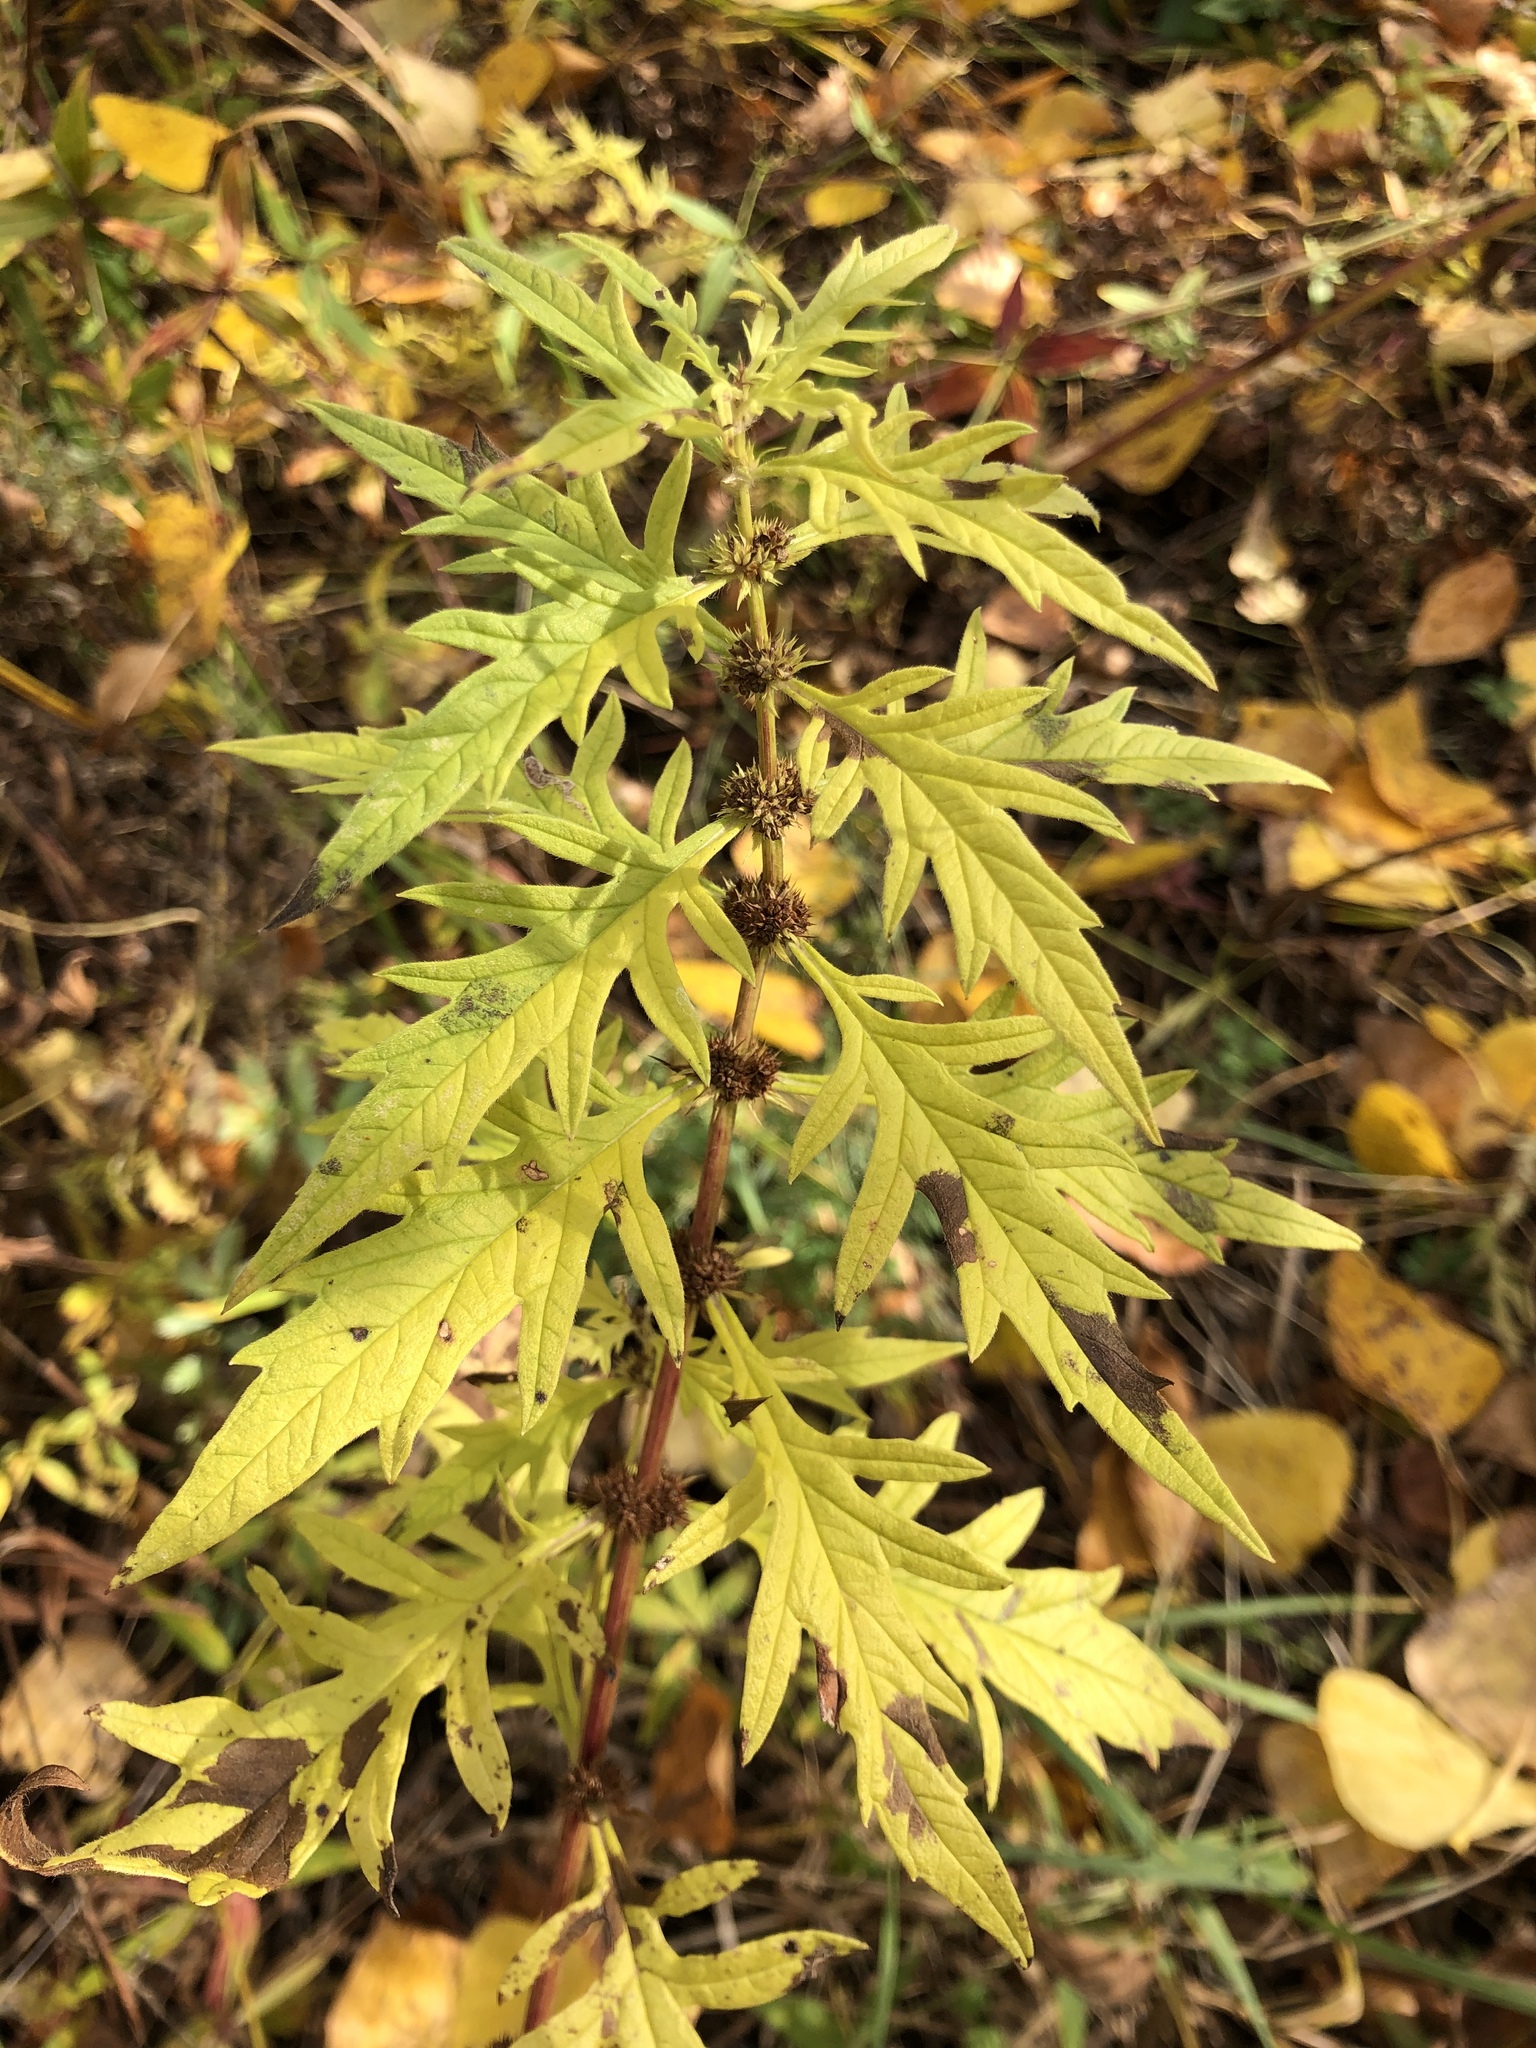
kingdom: Plantae
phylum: Tracheophyta
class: Magnoliopsida
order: Lamiales
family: Lamiaceae
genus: Lycopus
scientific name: Lycopus exaltatus
